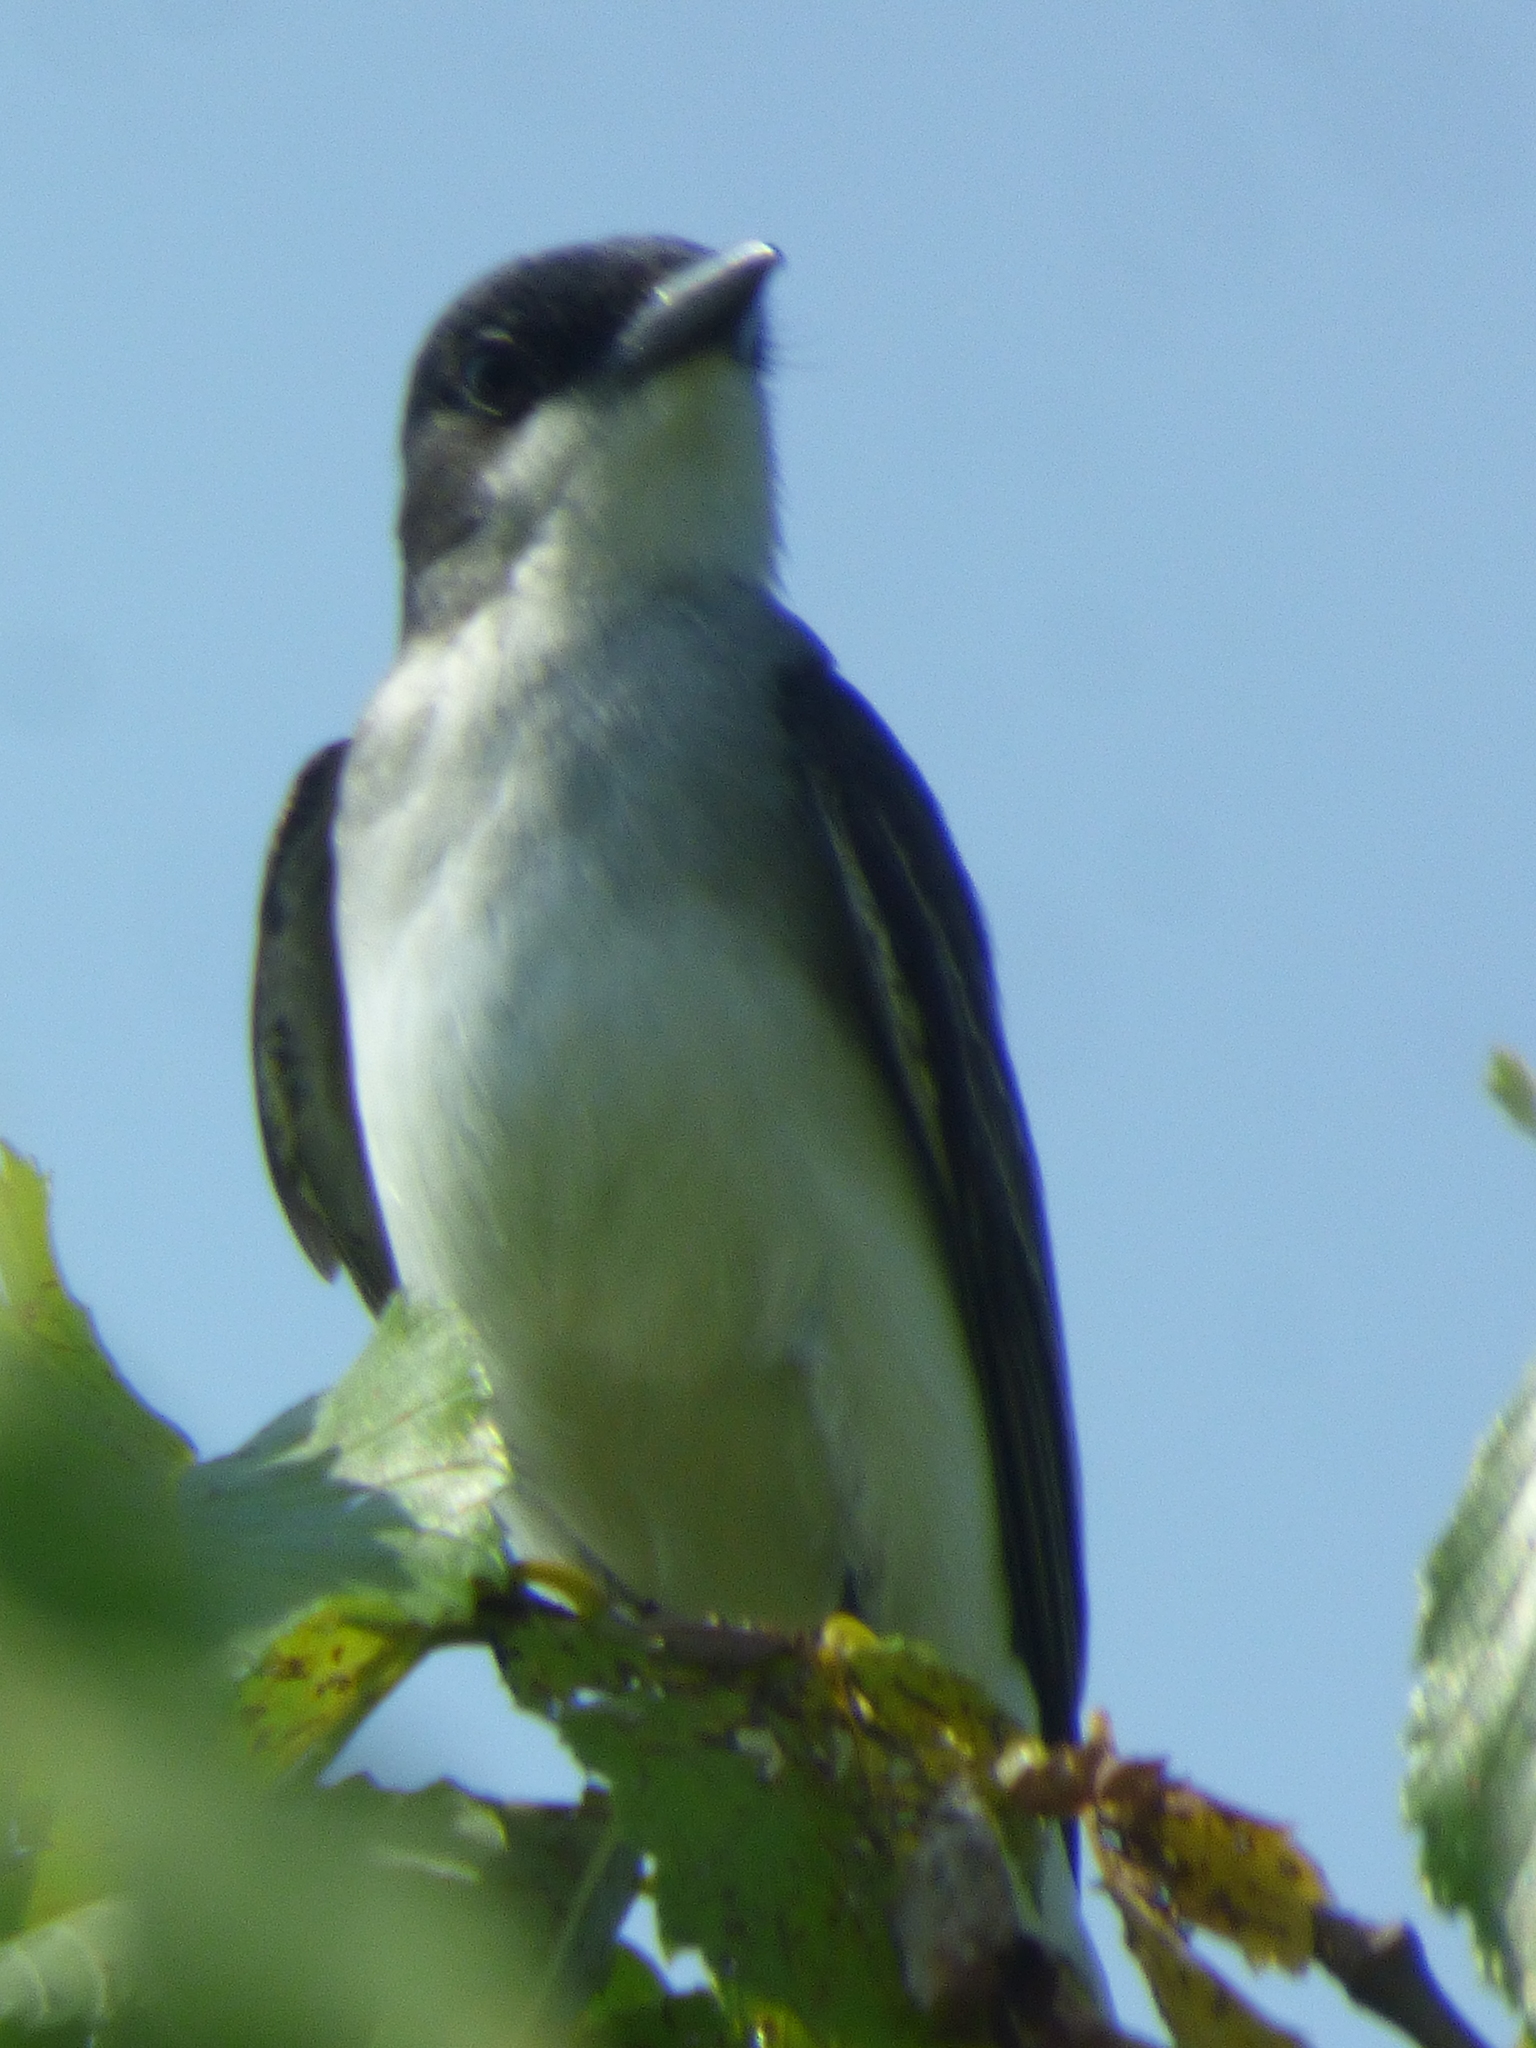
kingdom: Animalia
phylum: Chordata
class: Aves
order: Passeriformes
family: Tyrannidae
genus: Tyrannus
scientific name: Tyrannus tyrannus
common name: Eastern kingbird
